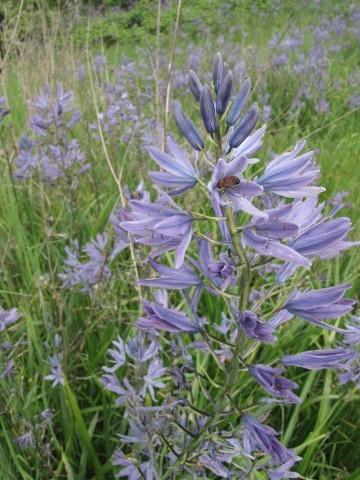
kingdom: Plantae
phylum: Tracheophyta
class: Liliopsida
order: Asparagales
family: Asparagaceae
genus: Camassia
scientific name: Camassia leichtlinii
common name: Leichtlin's camas
